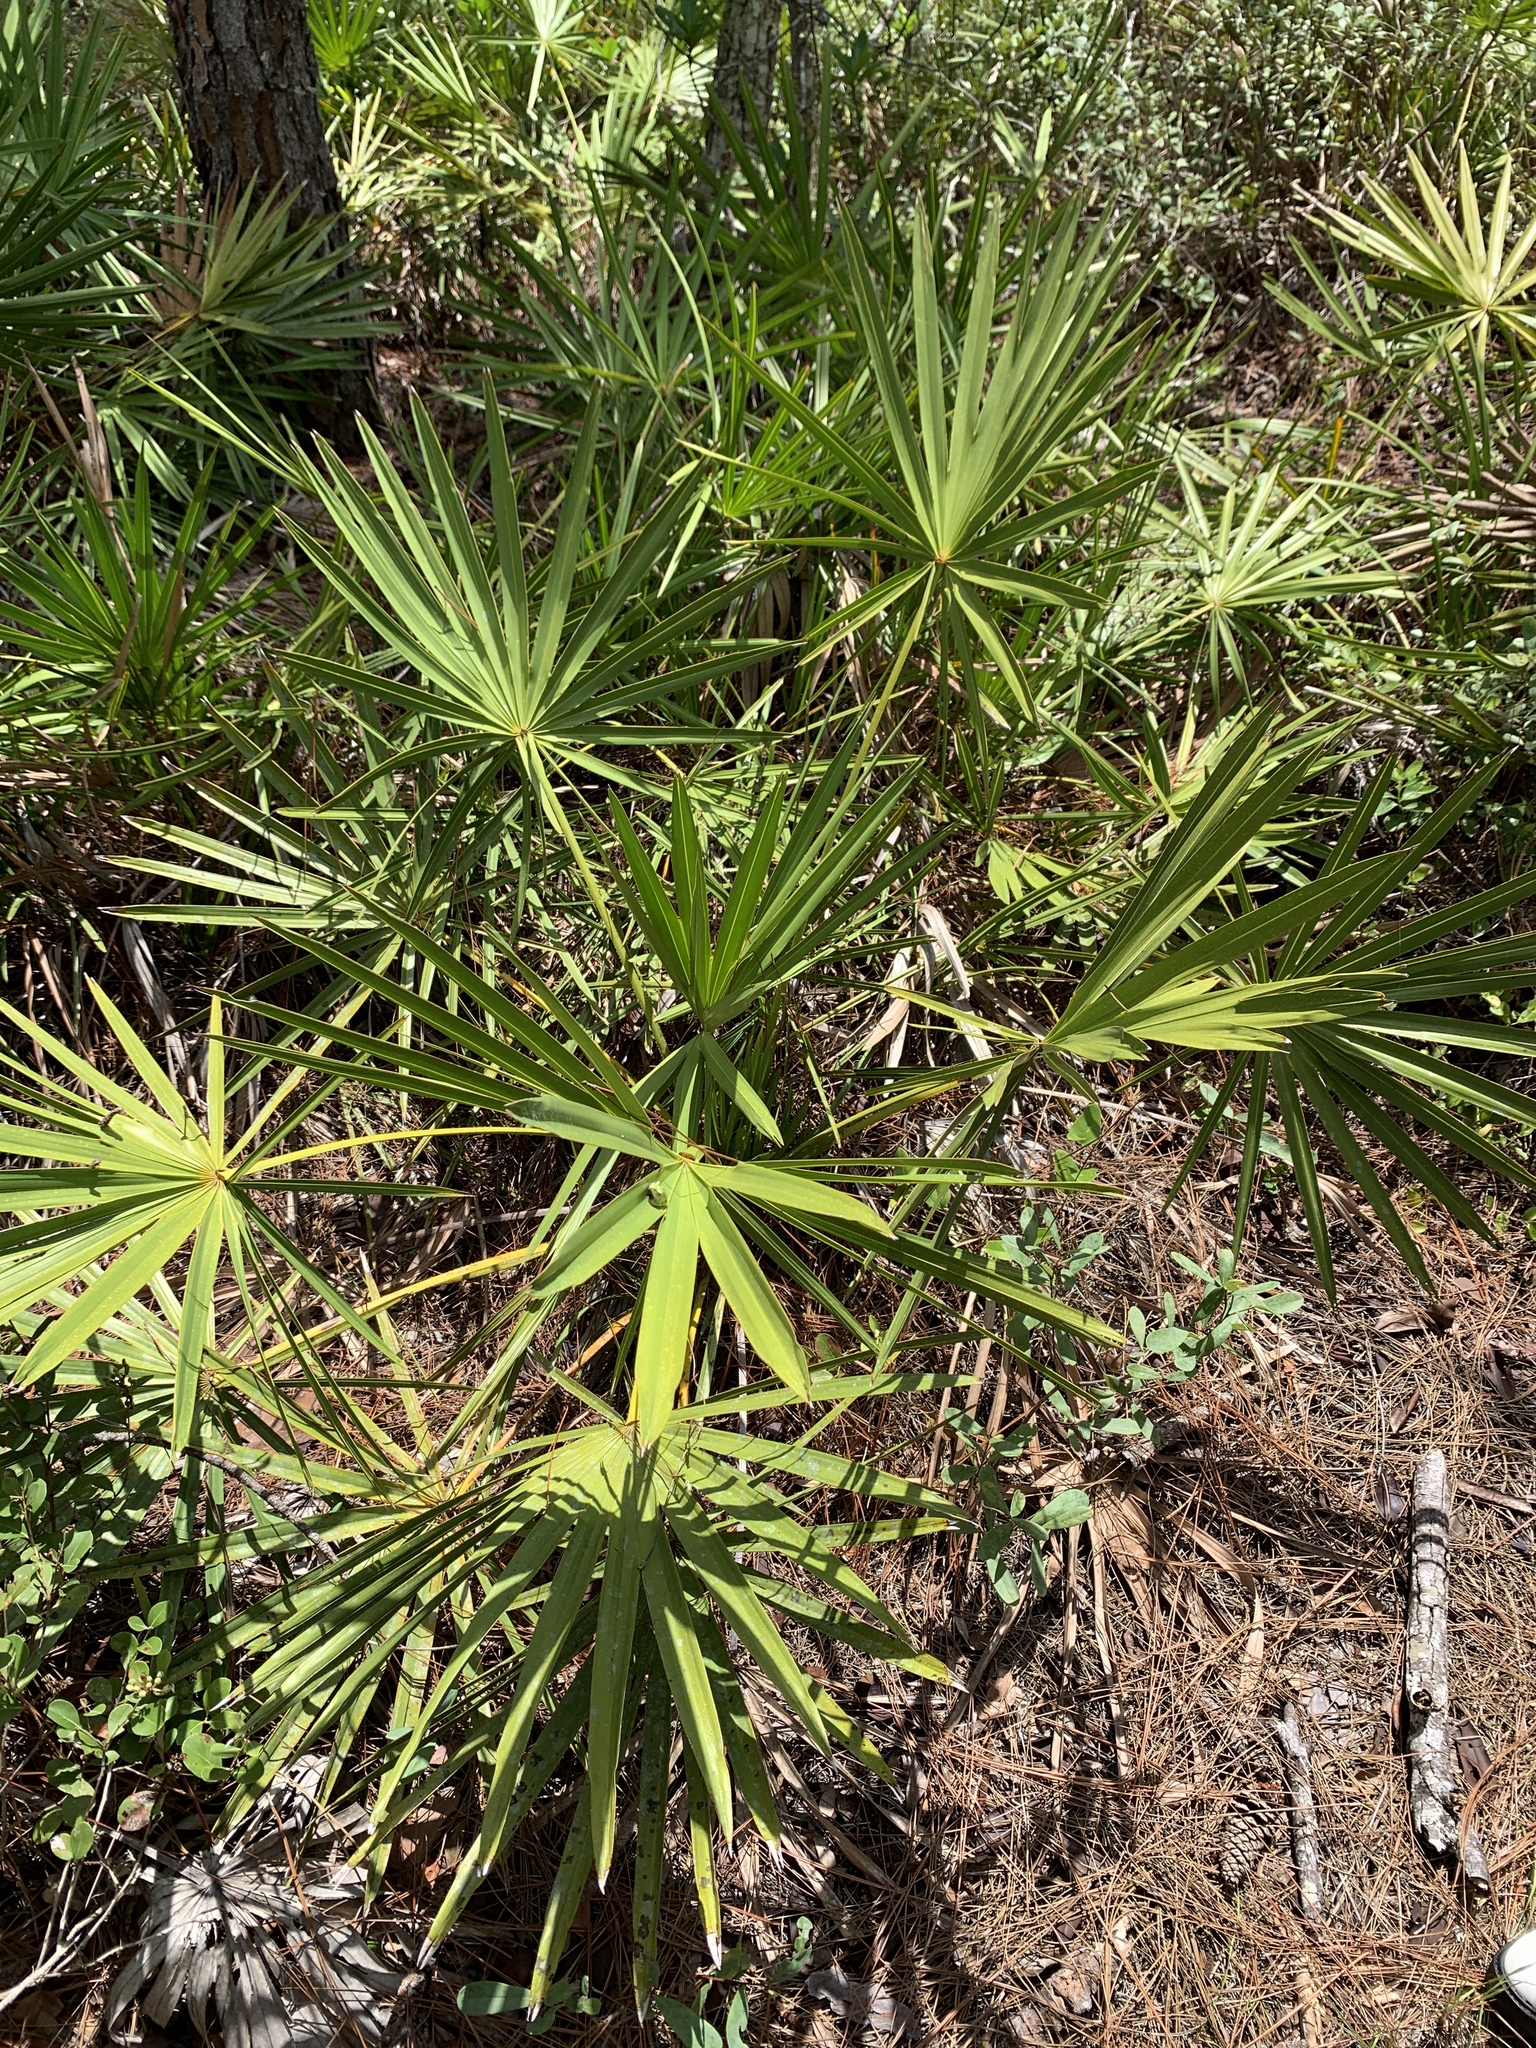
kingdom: Plantae
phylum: Tracheophyta
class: Liliopsida
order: Arecales
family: Arecaceae
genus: Serenoa
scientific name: Serenoa repens
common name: Saw-palmetto
